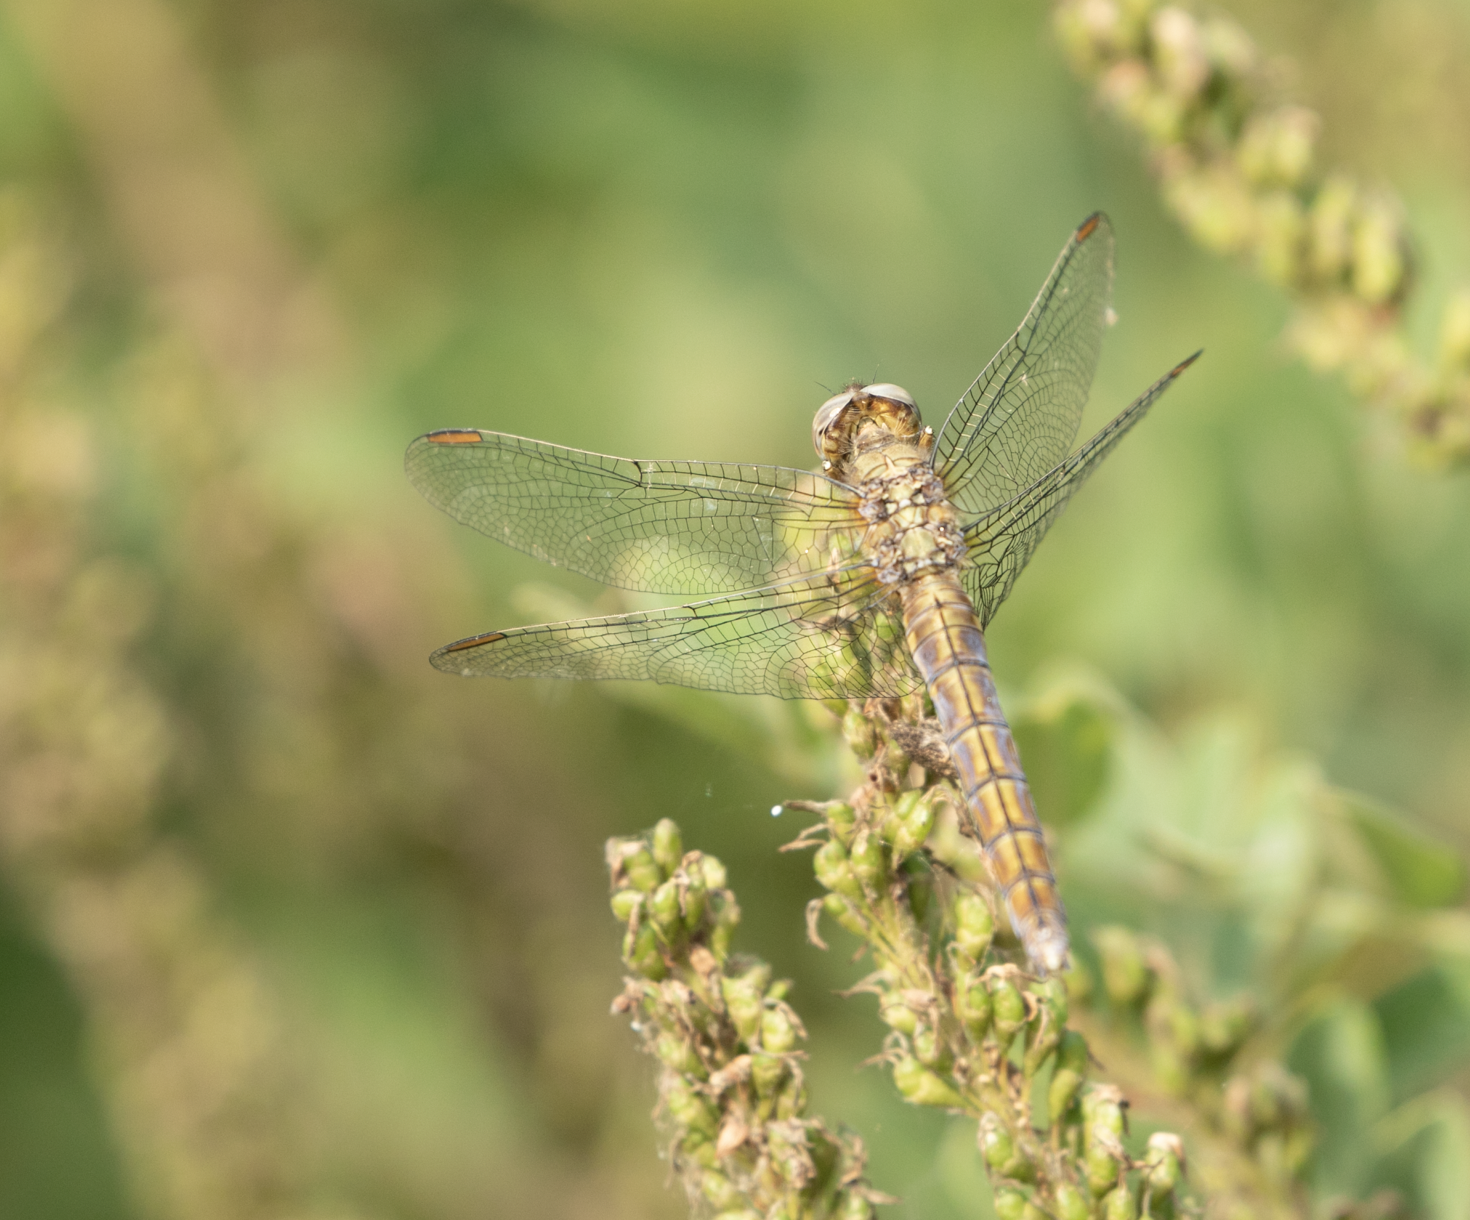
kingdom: Animalia
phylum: Arthropoda
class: Insecta
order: Odonata
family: Libellulidae
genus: Orthetrum
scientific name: Orthetrum coerulescens
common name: Keeled skimmer
